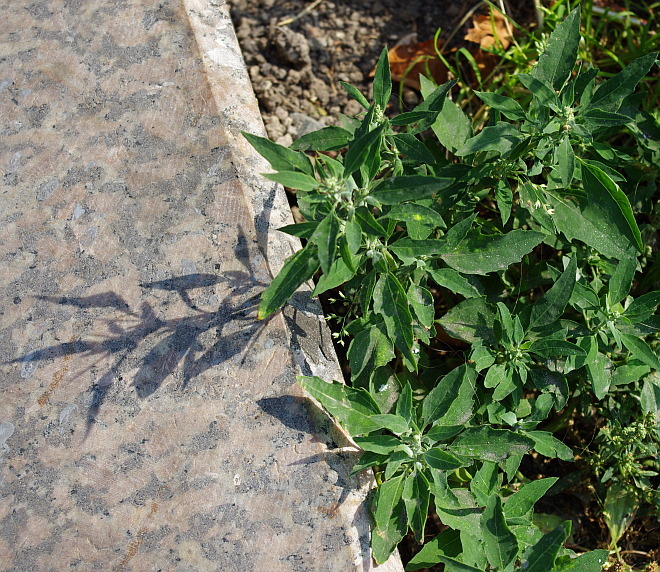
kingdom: Plantae
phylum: Tracheophyta
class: Magnoliopsida
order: Caryophyllales
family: Amaranthaceae
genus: Chenopodium
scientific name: Chenopodium album
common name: Fat-hen
